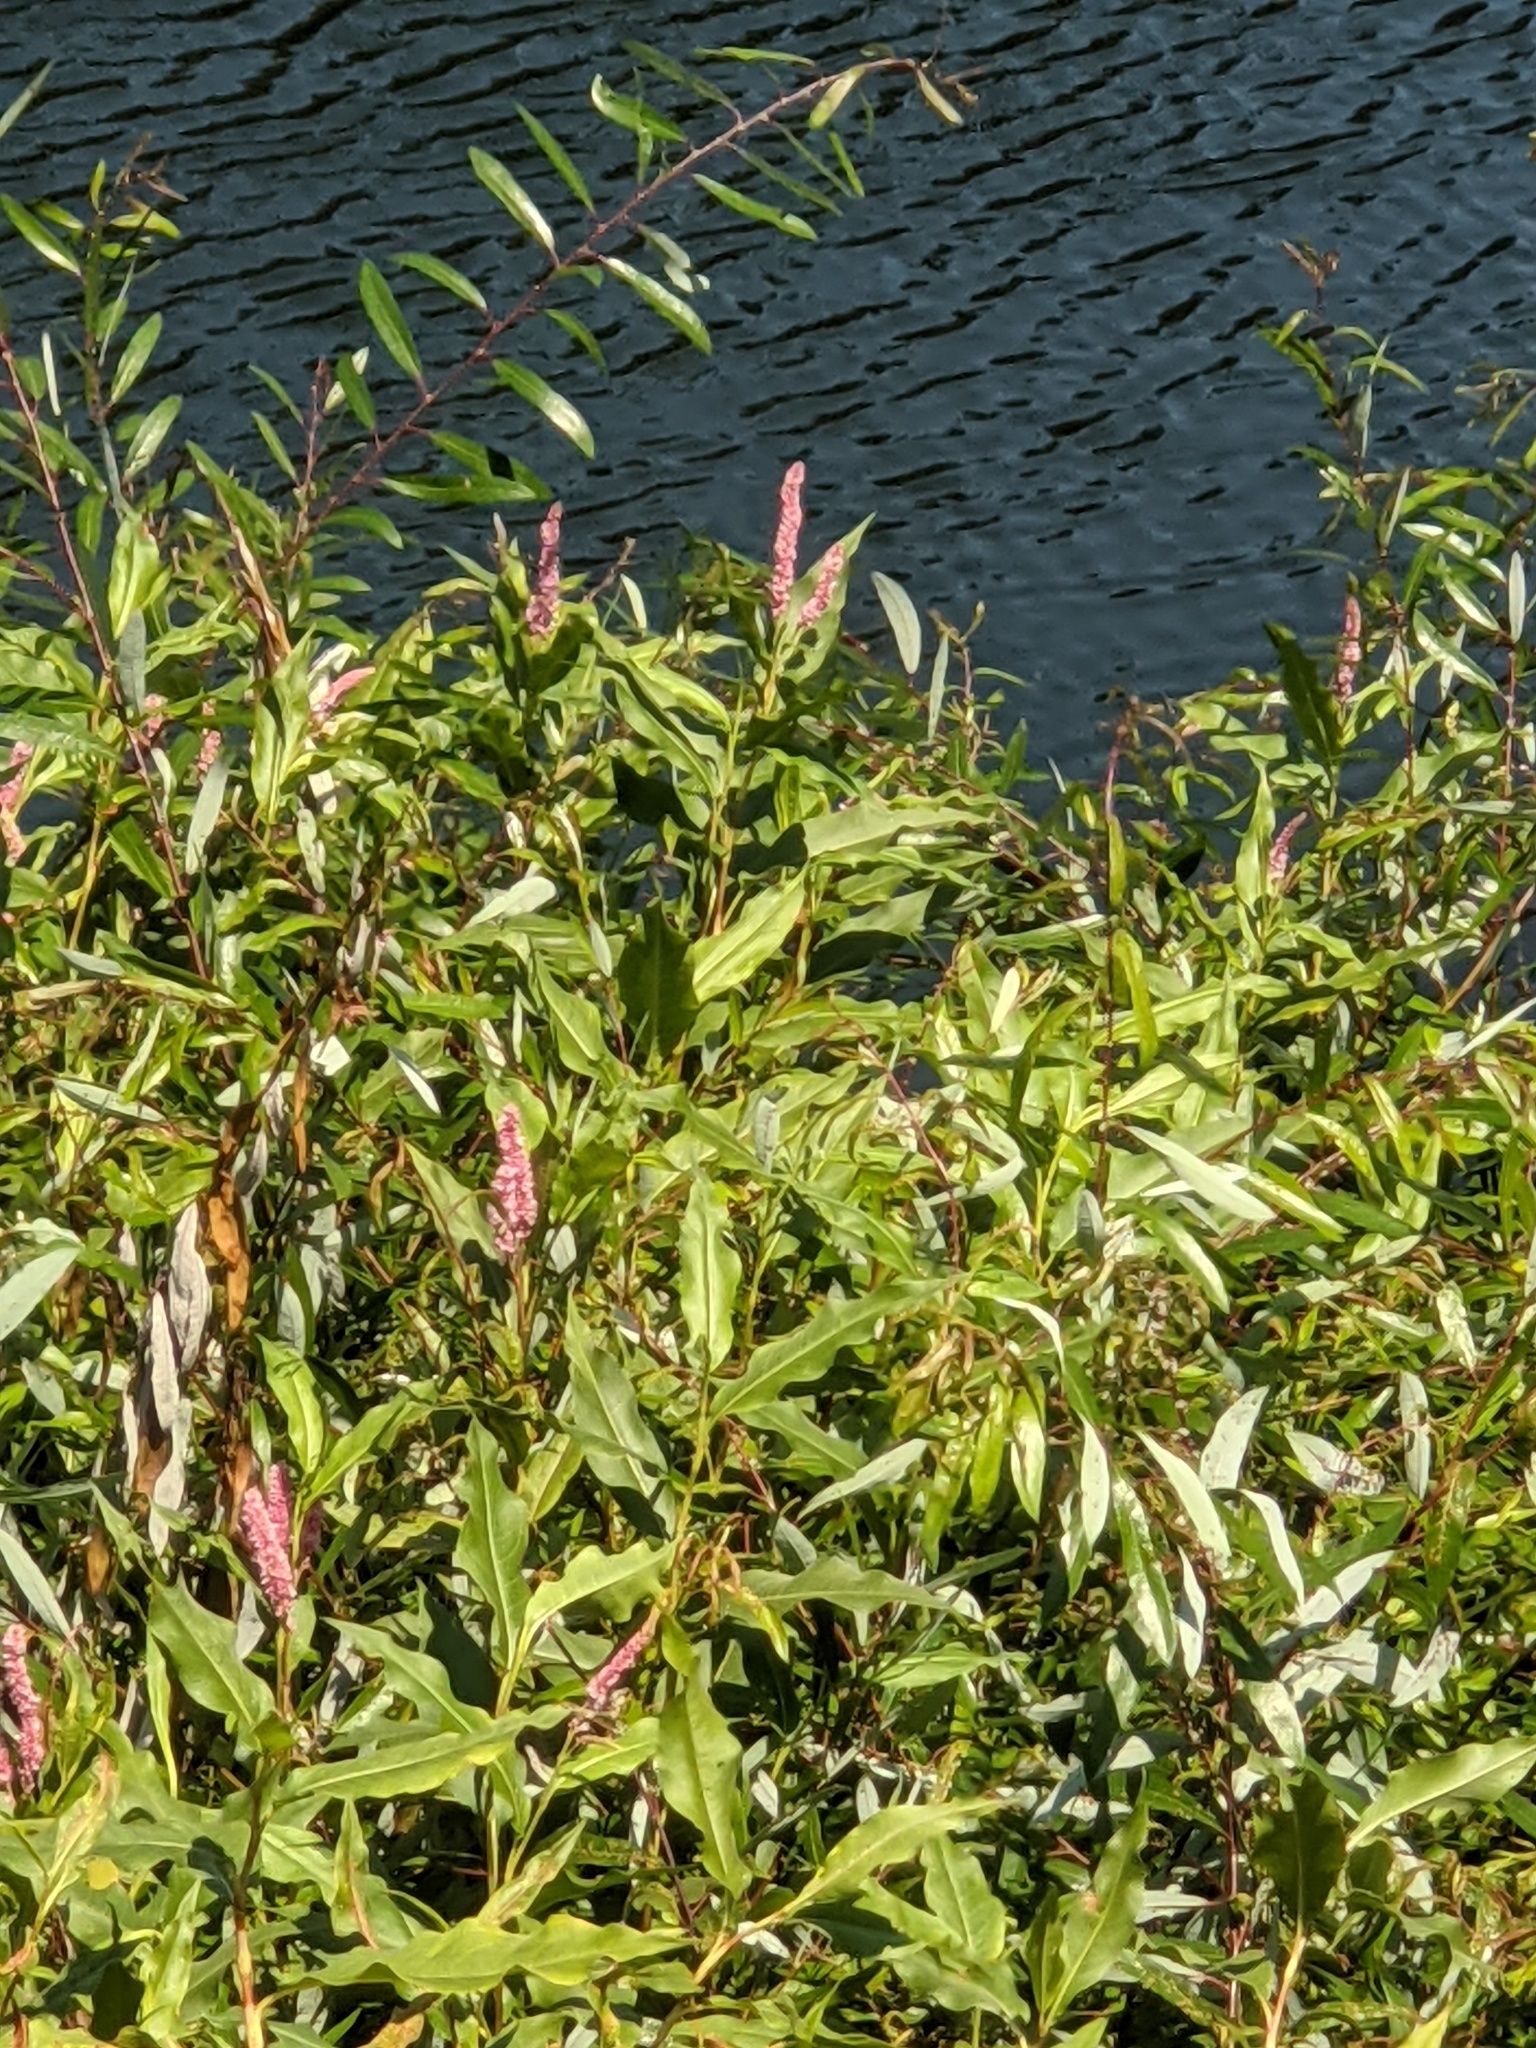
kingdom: Plantae
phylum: Tracheophyta
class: Magnoliopsida
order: Caryophyllales
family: Polygonaceae
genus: Persicaria
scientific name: Persicaria amphibia
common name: Amphibious bistort
